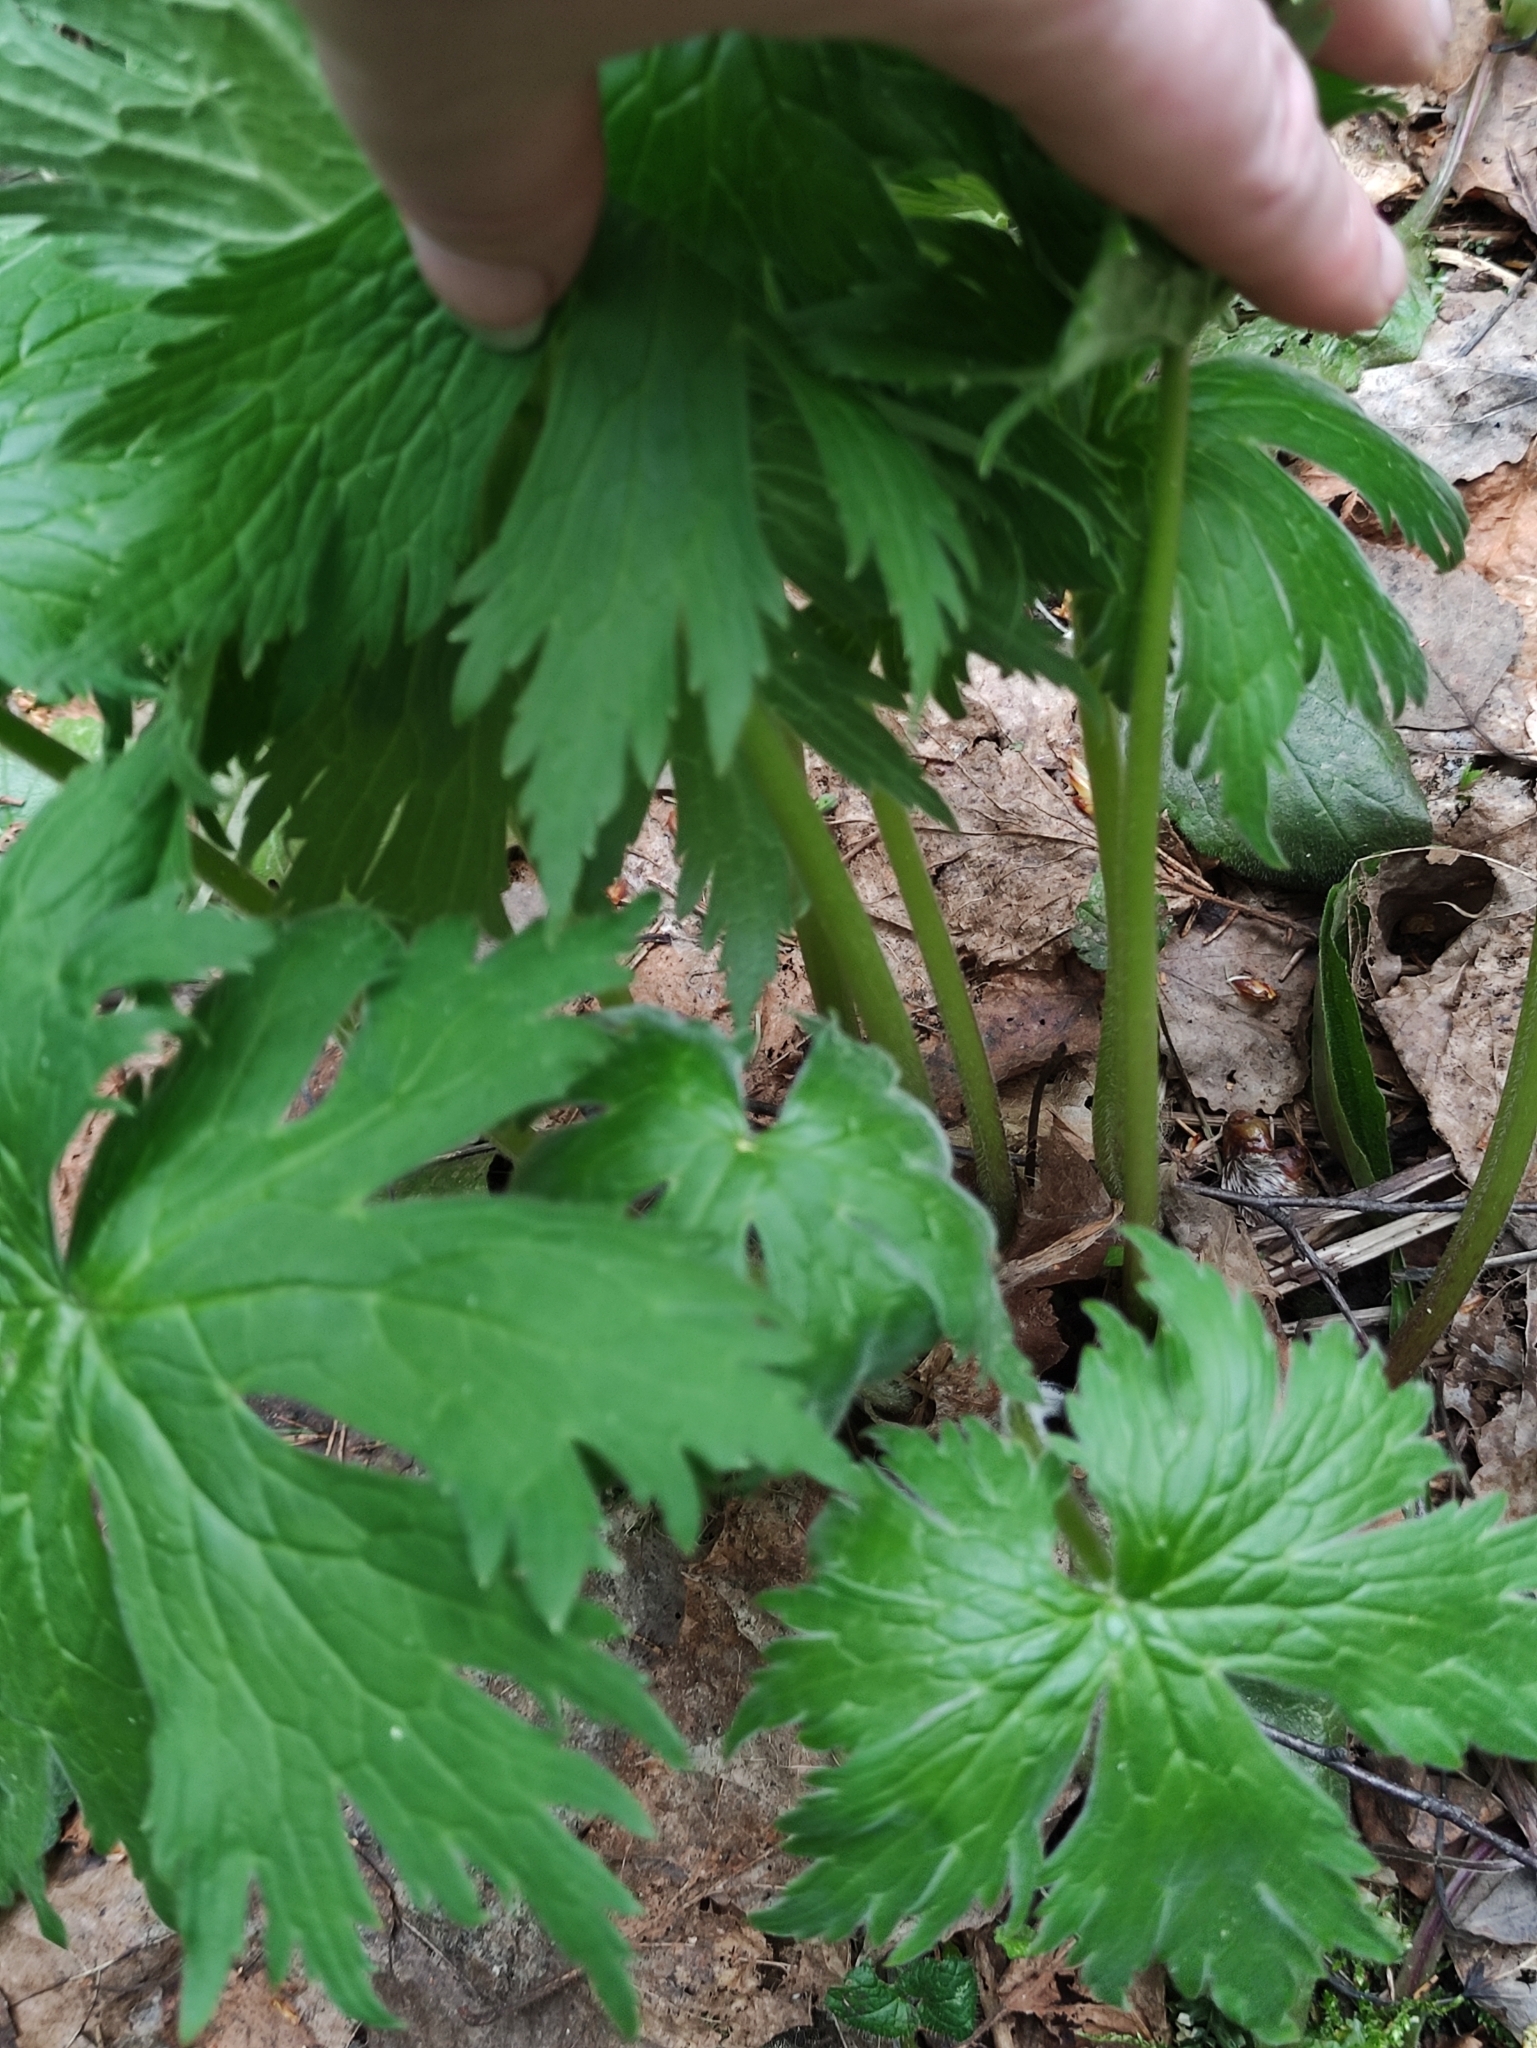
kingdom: Plantae
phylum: Tracheophyta
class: Magnoliopsida
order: Ranunculales
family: Ranunculaceae
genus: Aconitum
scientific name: Aconitum septentrionale
